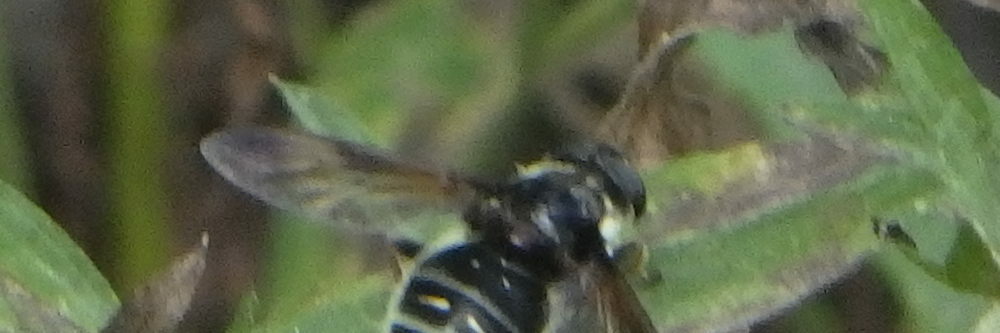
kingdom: Animalia
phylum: Arthropoda
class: Insecta
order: Diptera
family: Syrphidae
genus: Sericomyia
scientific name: Sericomyia militaris
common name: Narrow-banded pond fly
